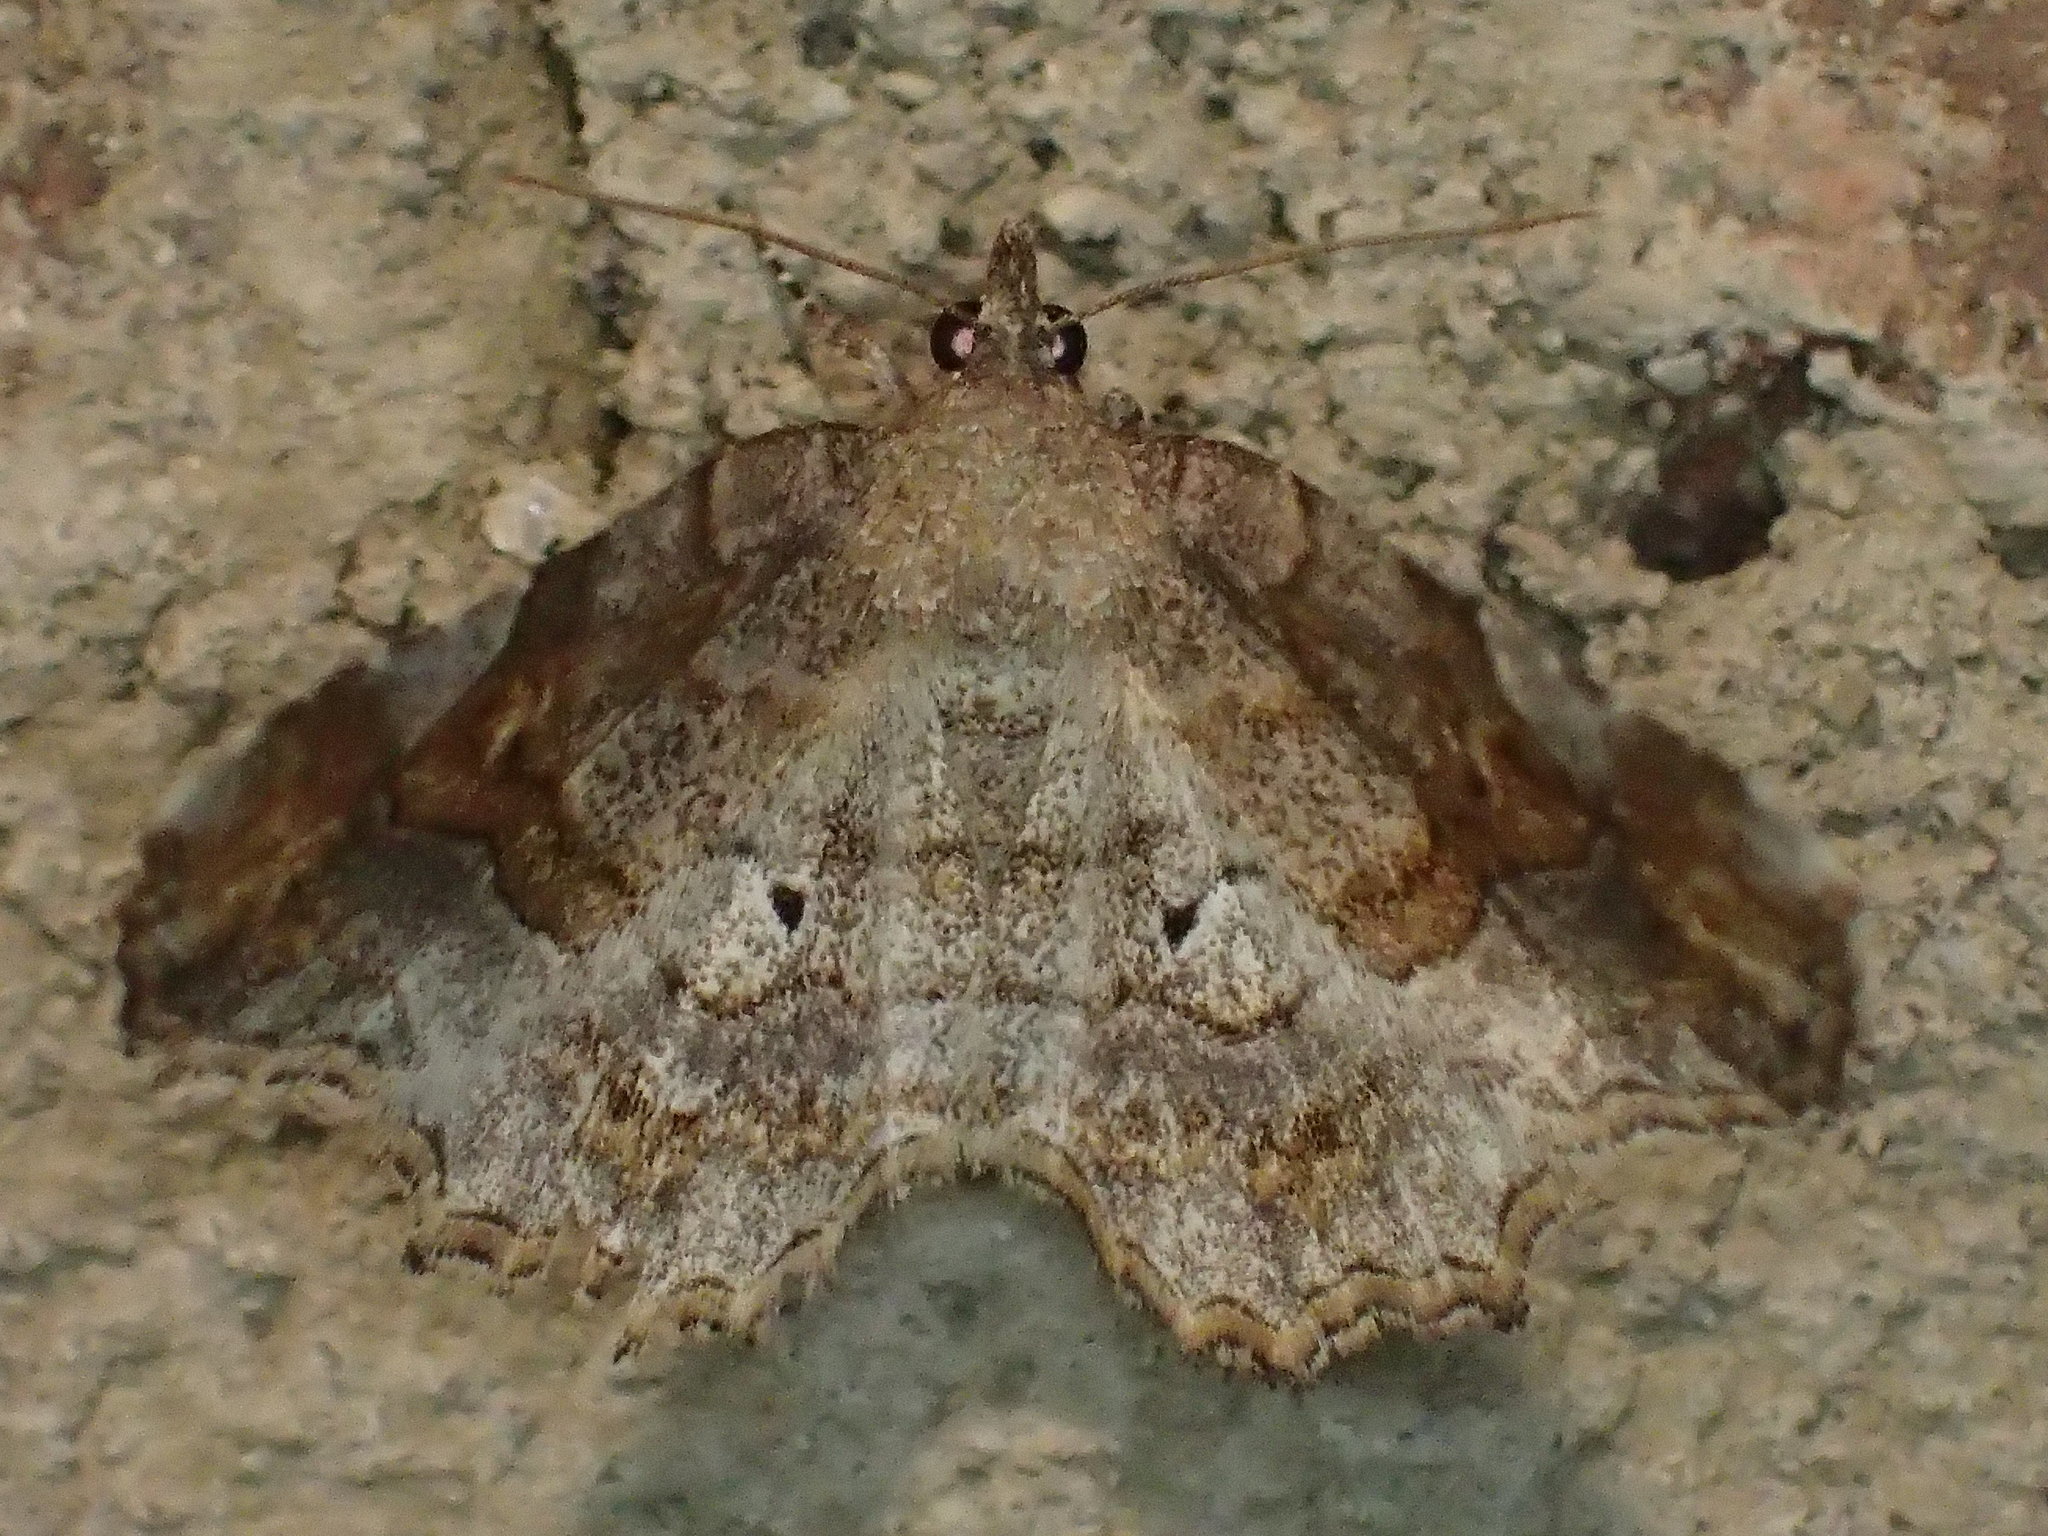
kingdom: Animalia
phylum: Arthropoda
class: Insecta
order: Lepidoptera
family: Erebidae
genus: Pangrapta
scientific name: Pangrapta decoralis
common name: Decorated owlet
